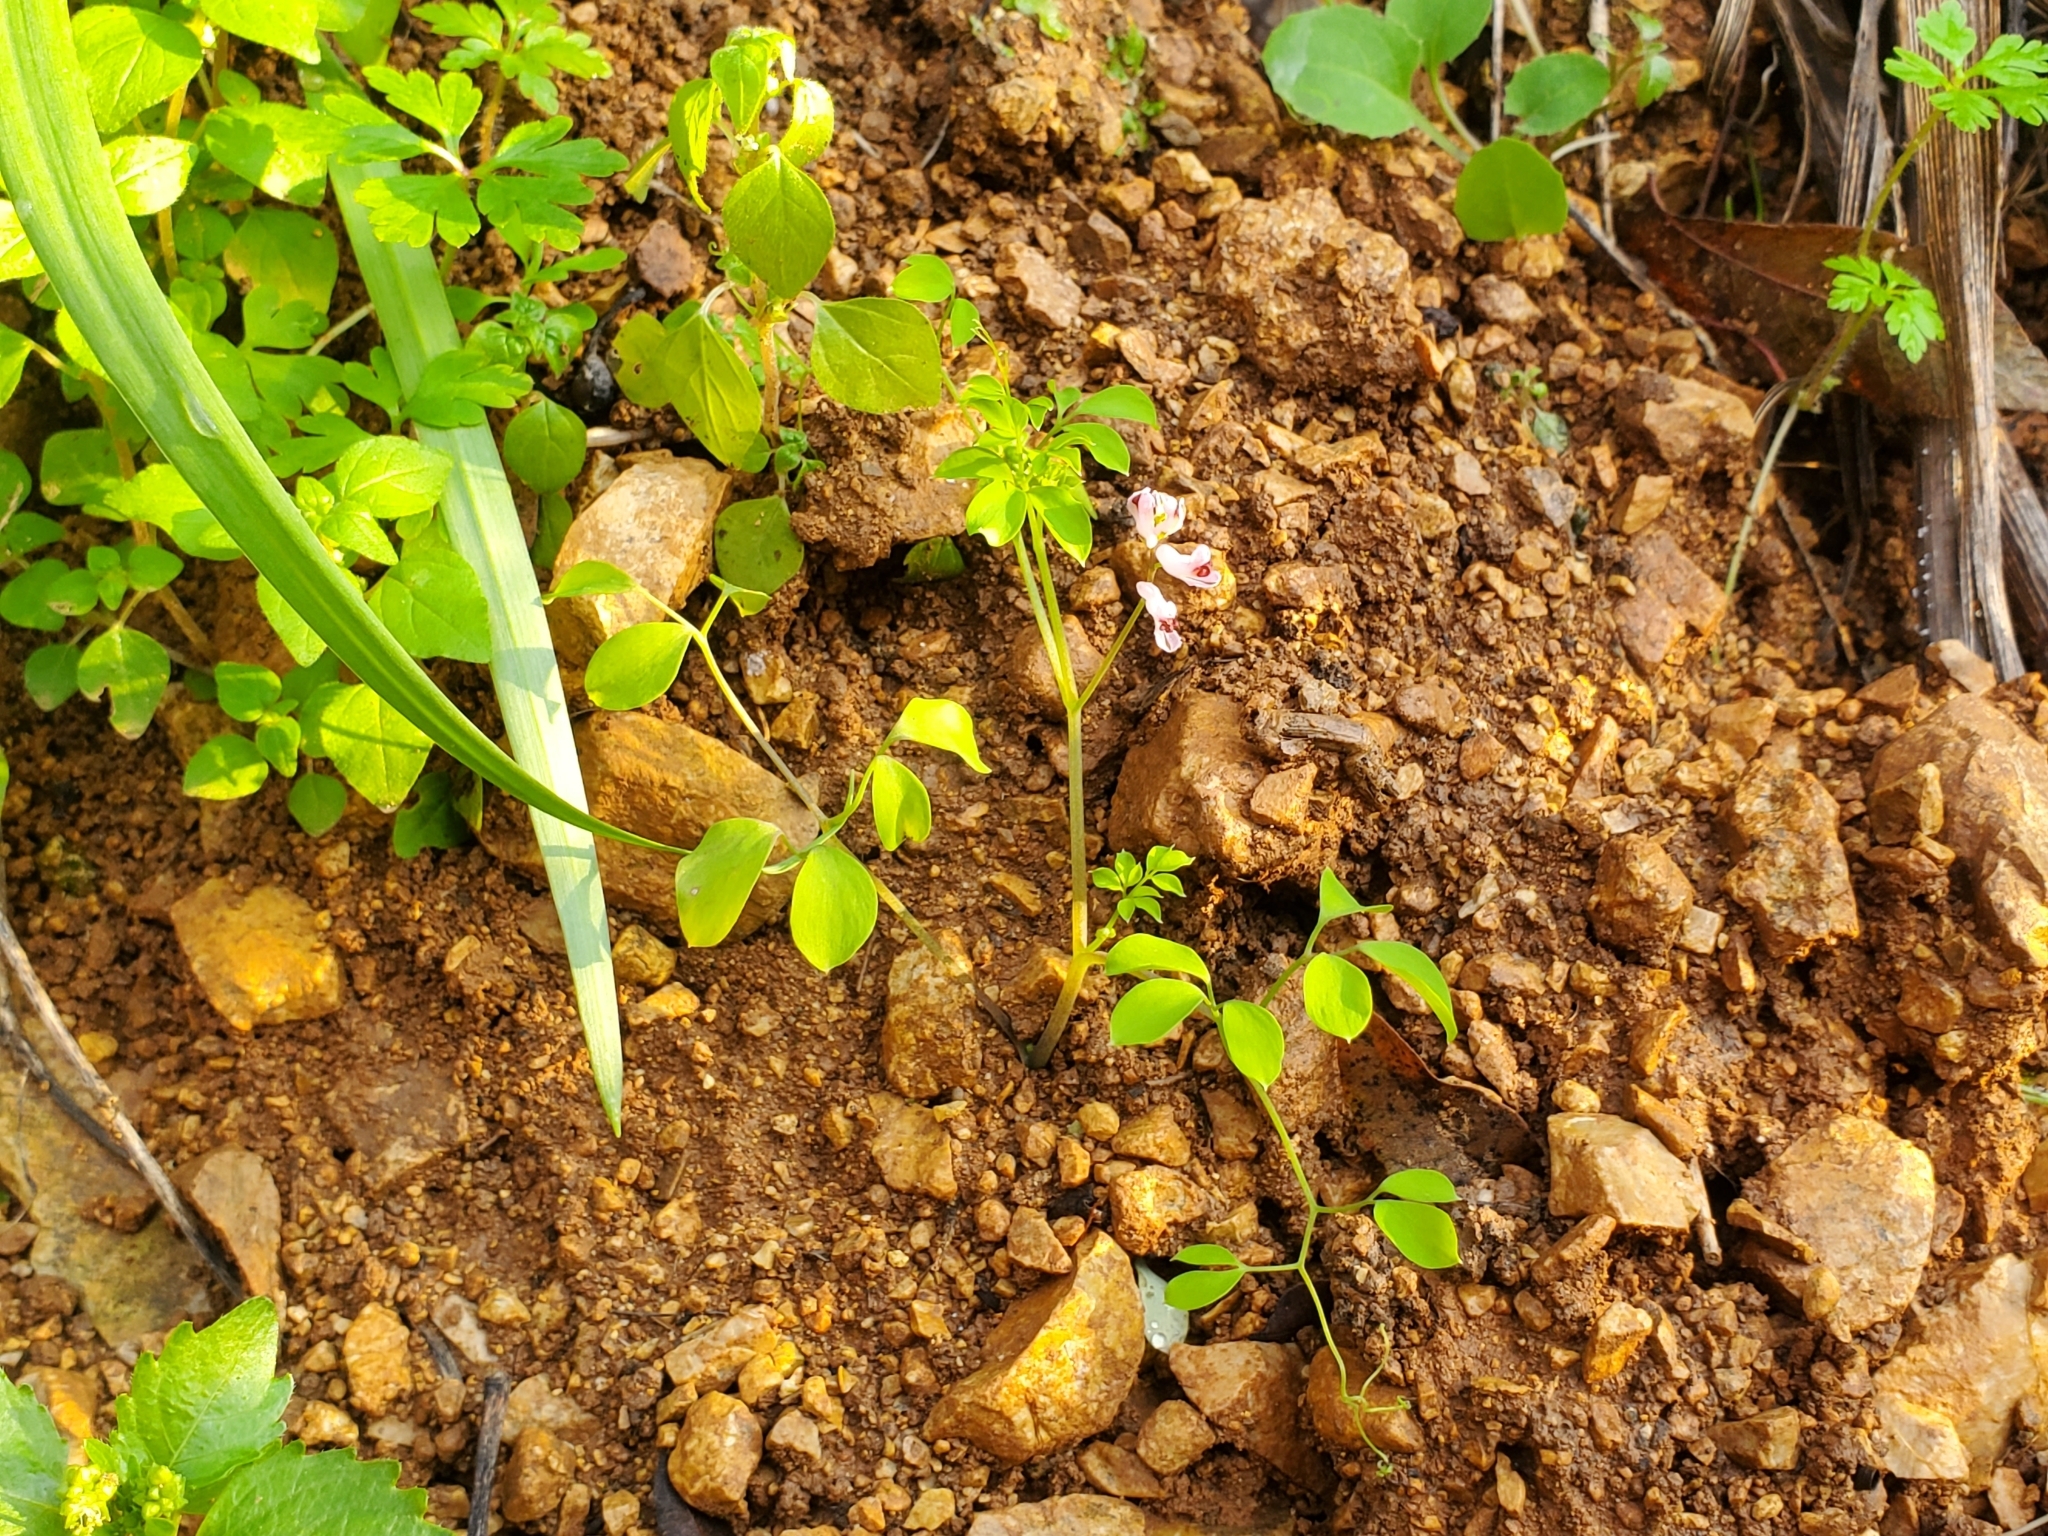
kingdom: Plantae
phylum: Tracheophyta
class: Magnoliopsida
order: Ranunculales
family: Papaveraceae
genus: Ceratocapnos
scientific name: Ceratocapnos turbinata
